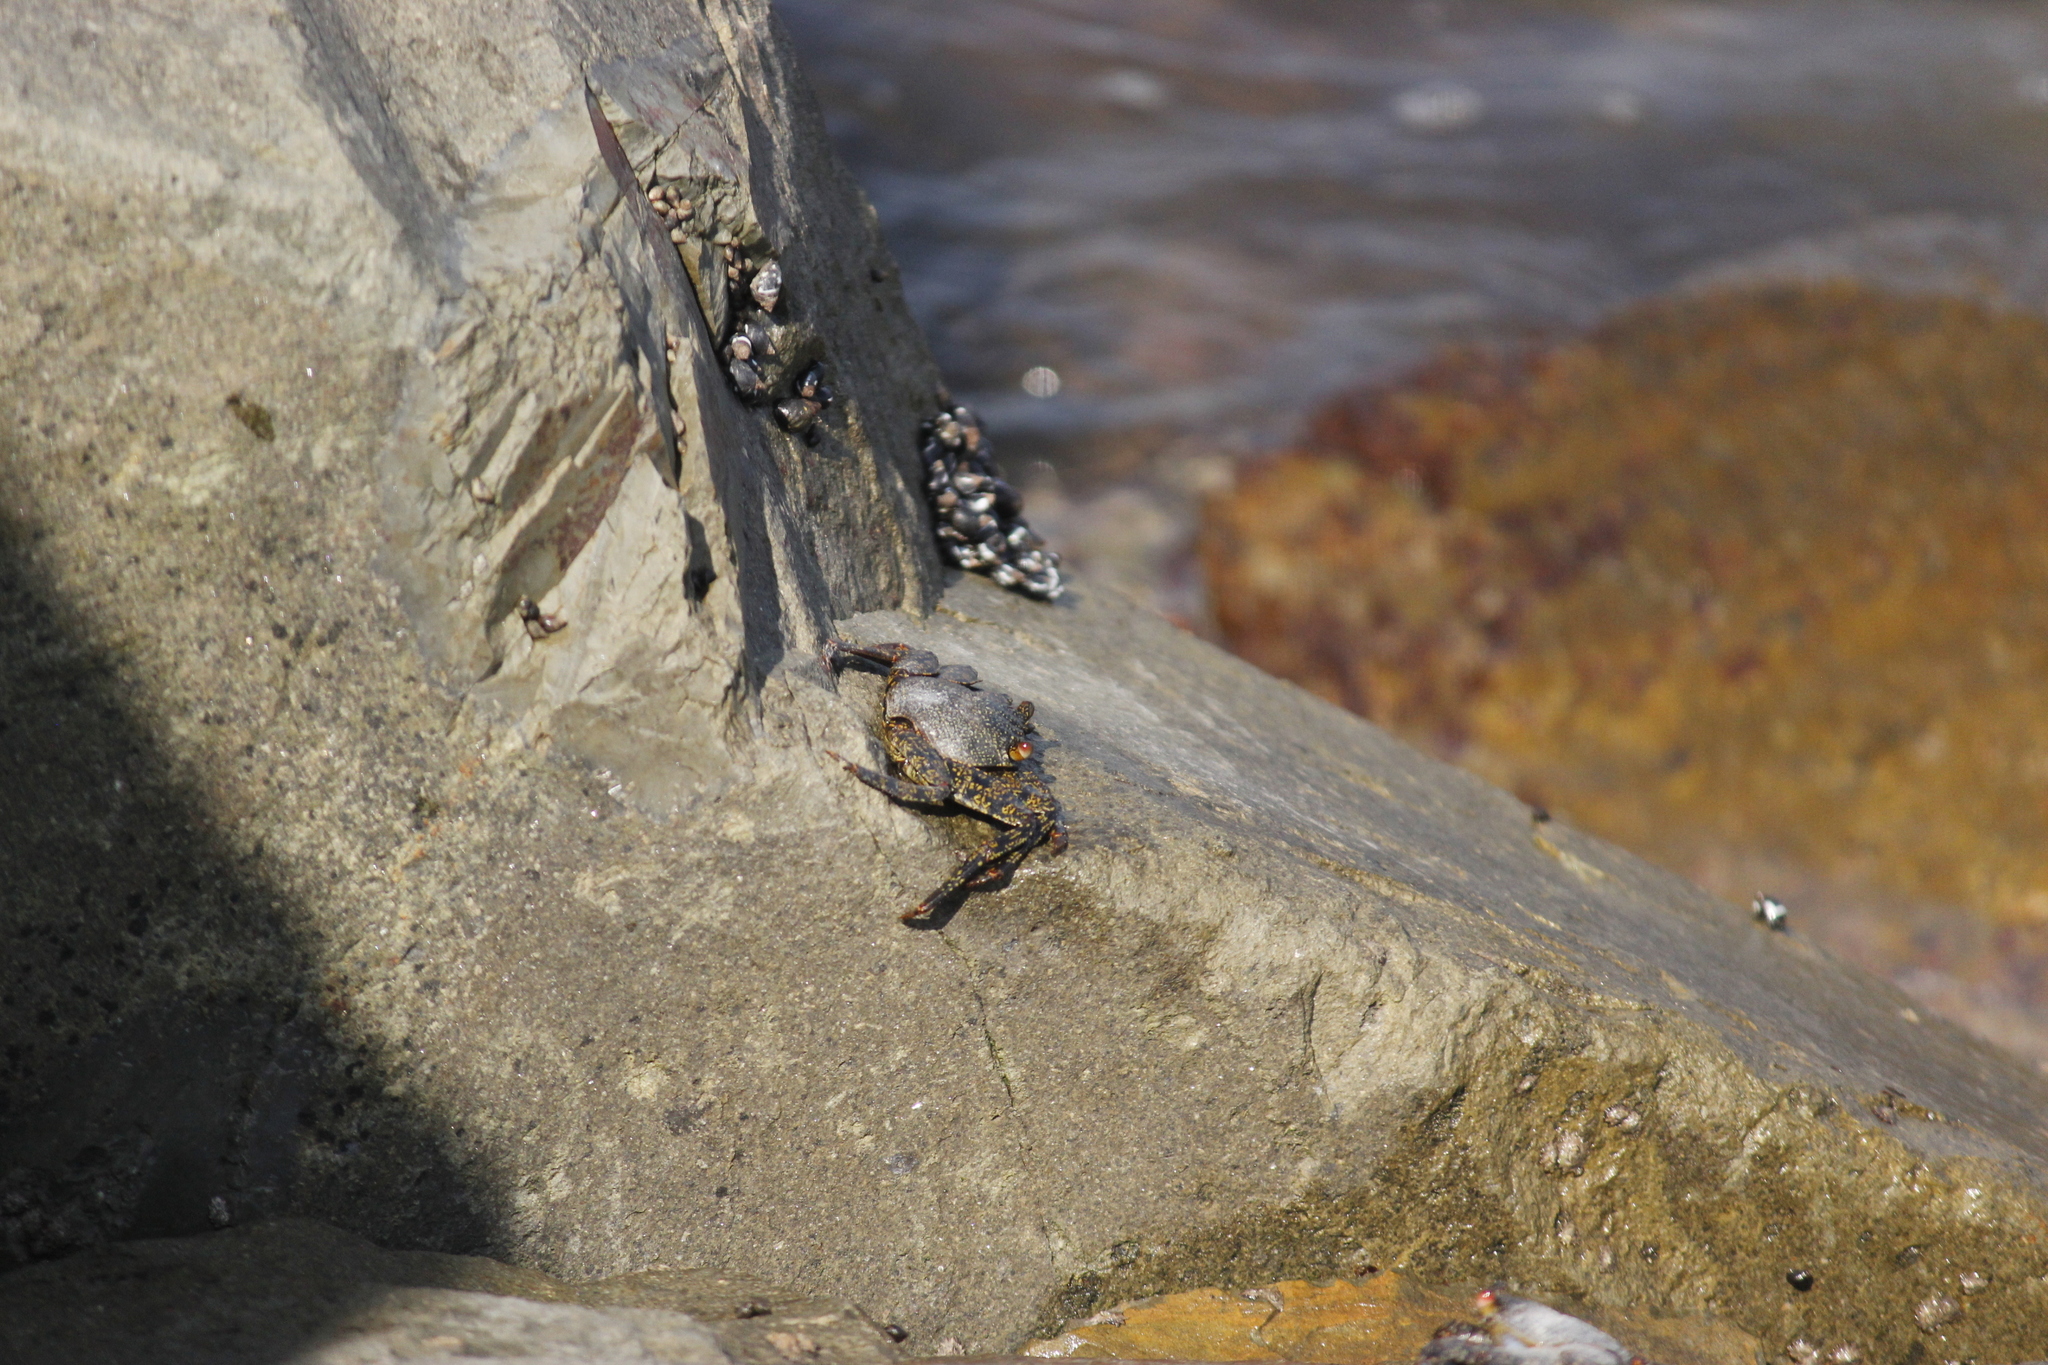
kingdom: Animalia
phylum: Arthropoda
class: Malacostraca
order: Decapoda
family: Grapsidae
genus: Grapsus
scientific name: Grapsus grapsus
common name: Sally lightfoot
